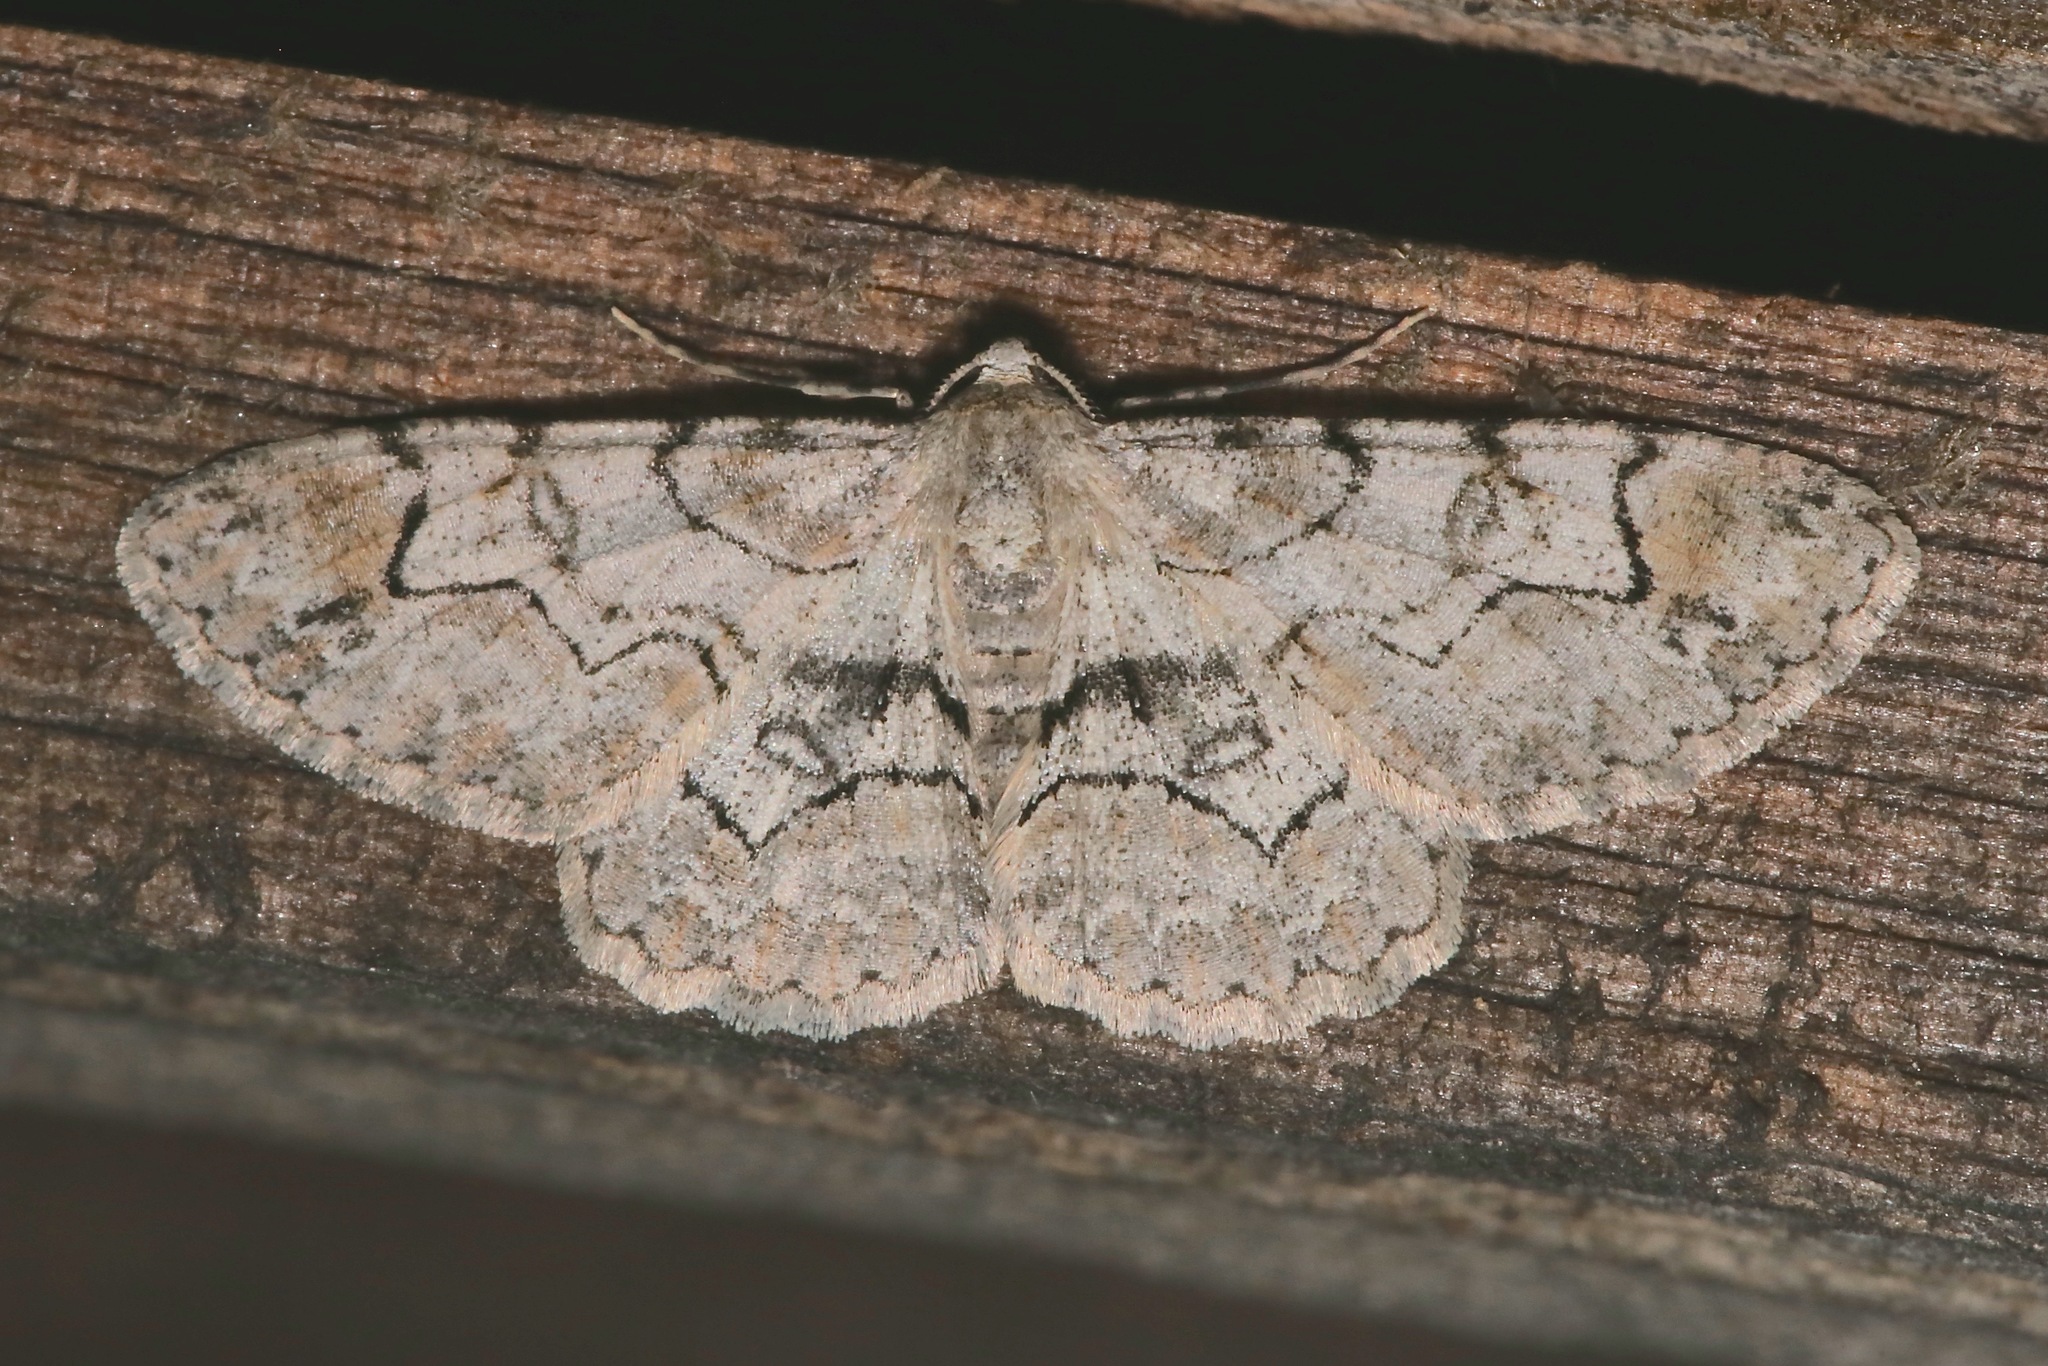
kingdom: Animalia
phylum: Arthropoda
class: Insecta
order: Lepidoptera
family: Geometridae
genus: Iridopsis
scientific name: Iridopsis larvaria
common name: Bent-line gray
